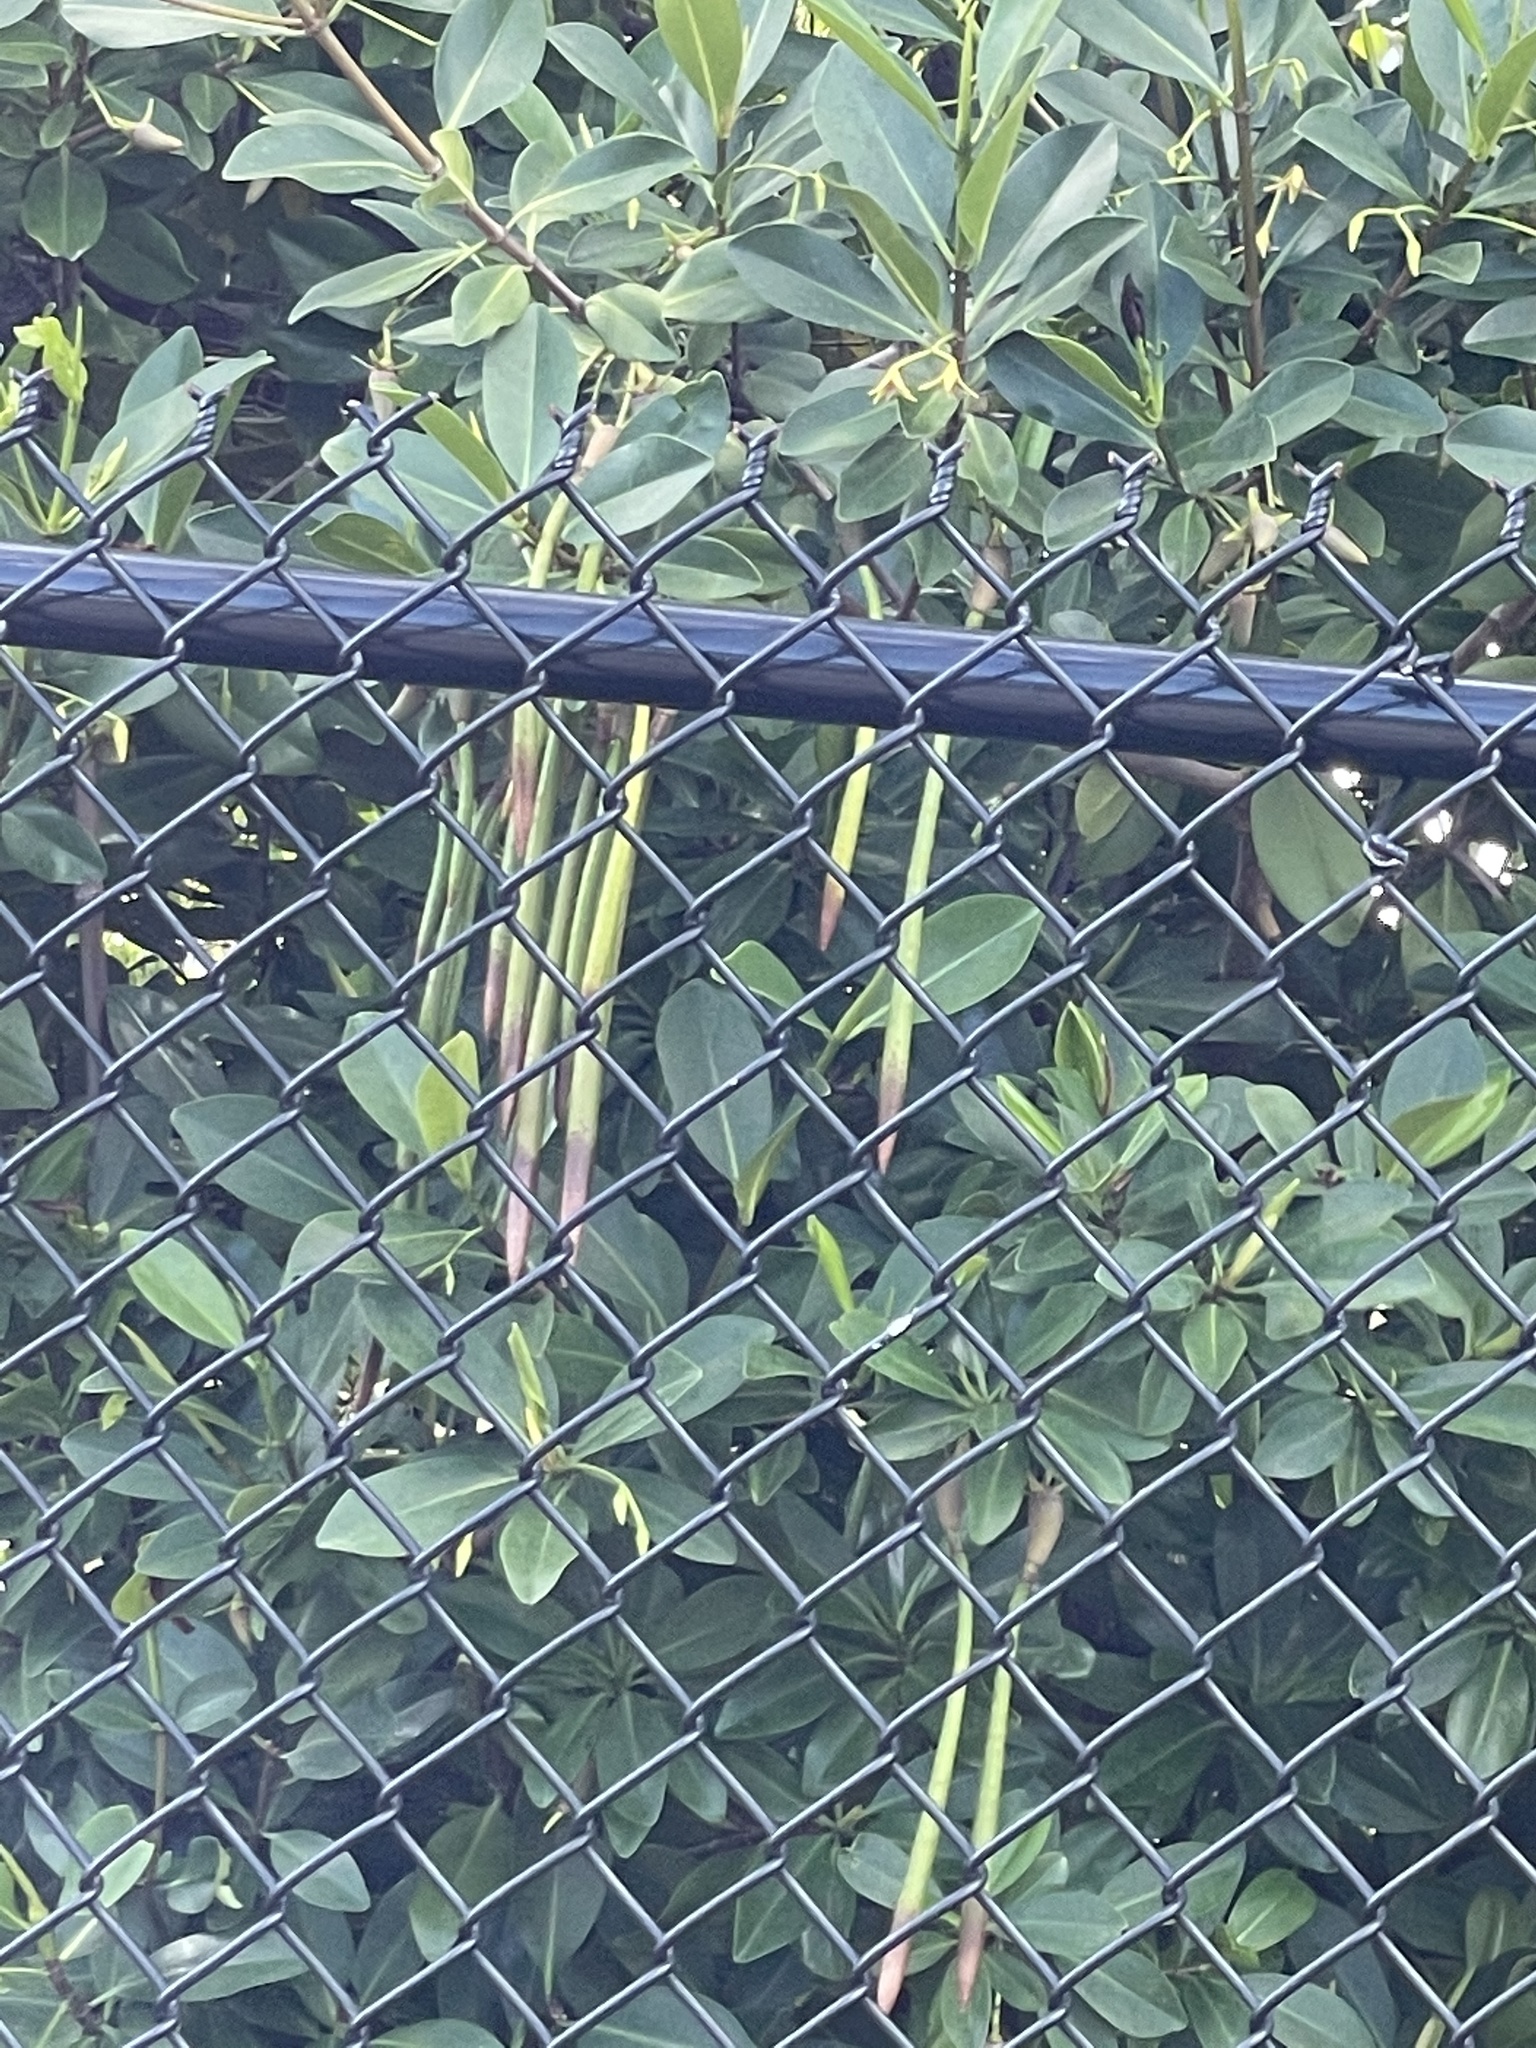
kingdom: Plantae
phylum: Tracheophyta
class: Magnoliopsida
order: Malpighiales
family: Rhizophoraceae
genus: Rhizophora
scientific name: Rhizophora mangle
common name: Red mangrove
